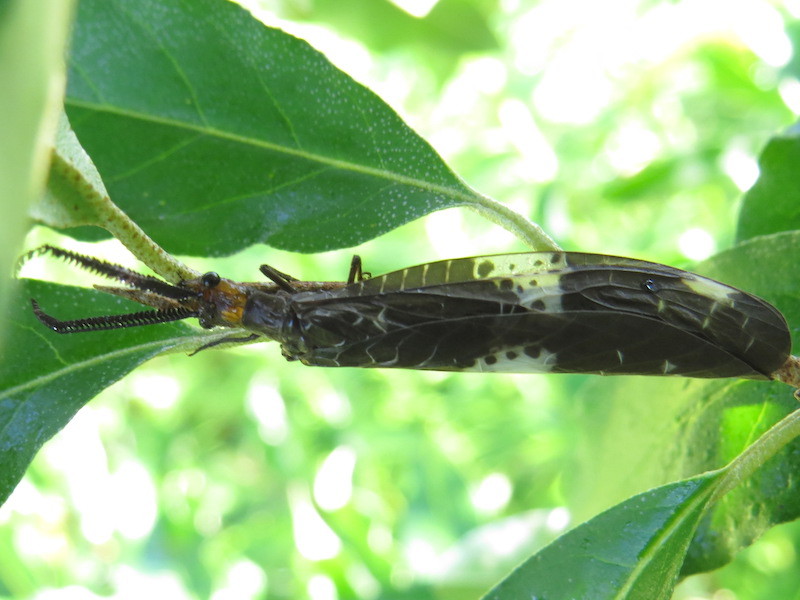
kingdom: Animalia
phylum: Arthropoda
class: Insecta
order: Megaloptera
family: Corydalidae
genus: Nigronia
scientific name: Nigronia fasciata
